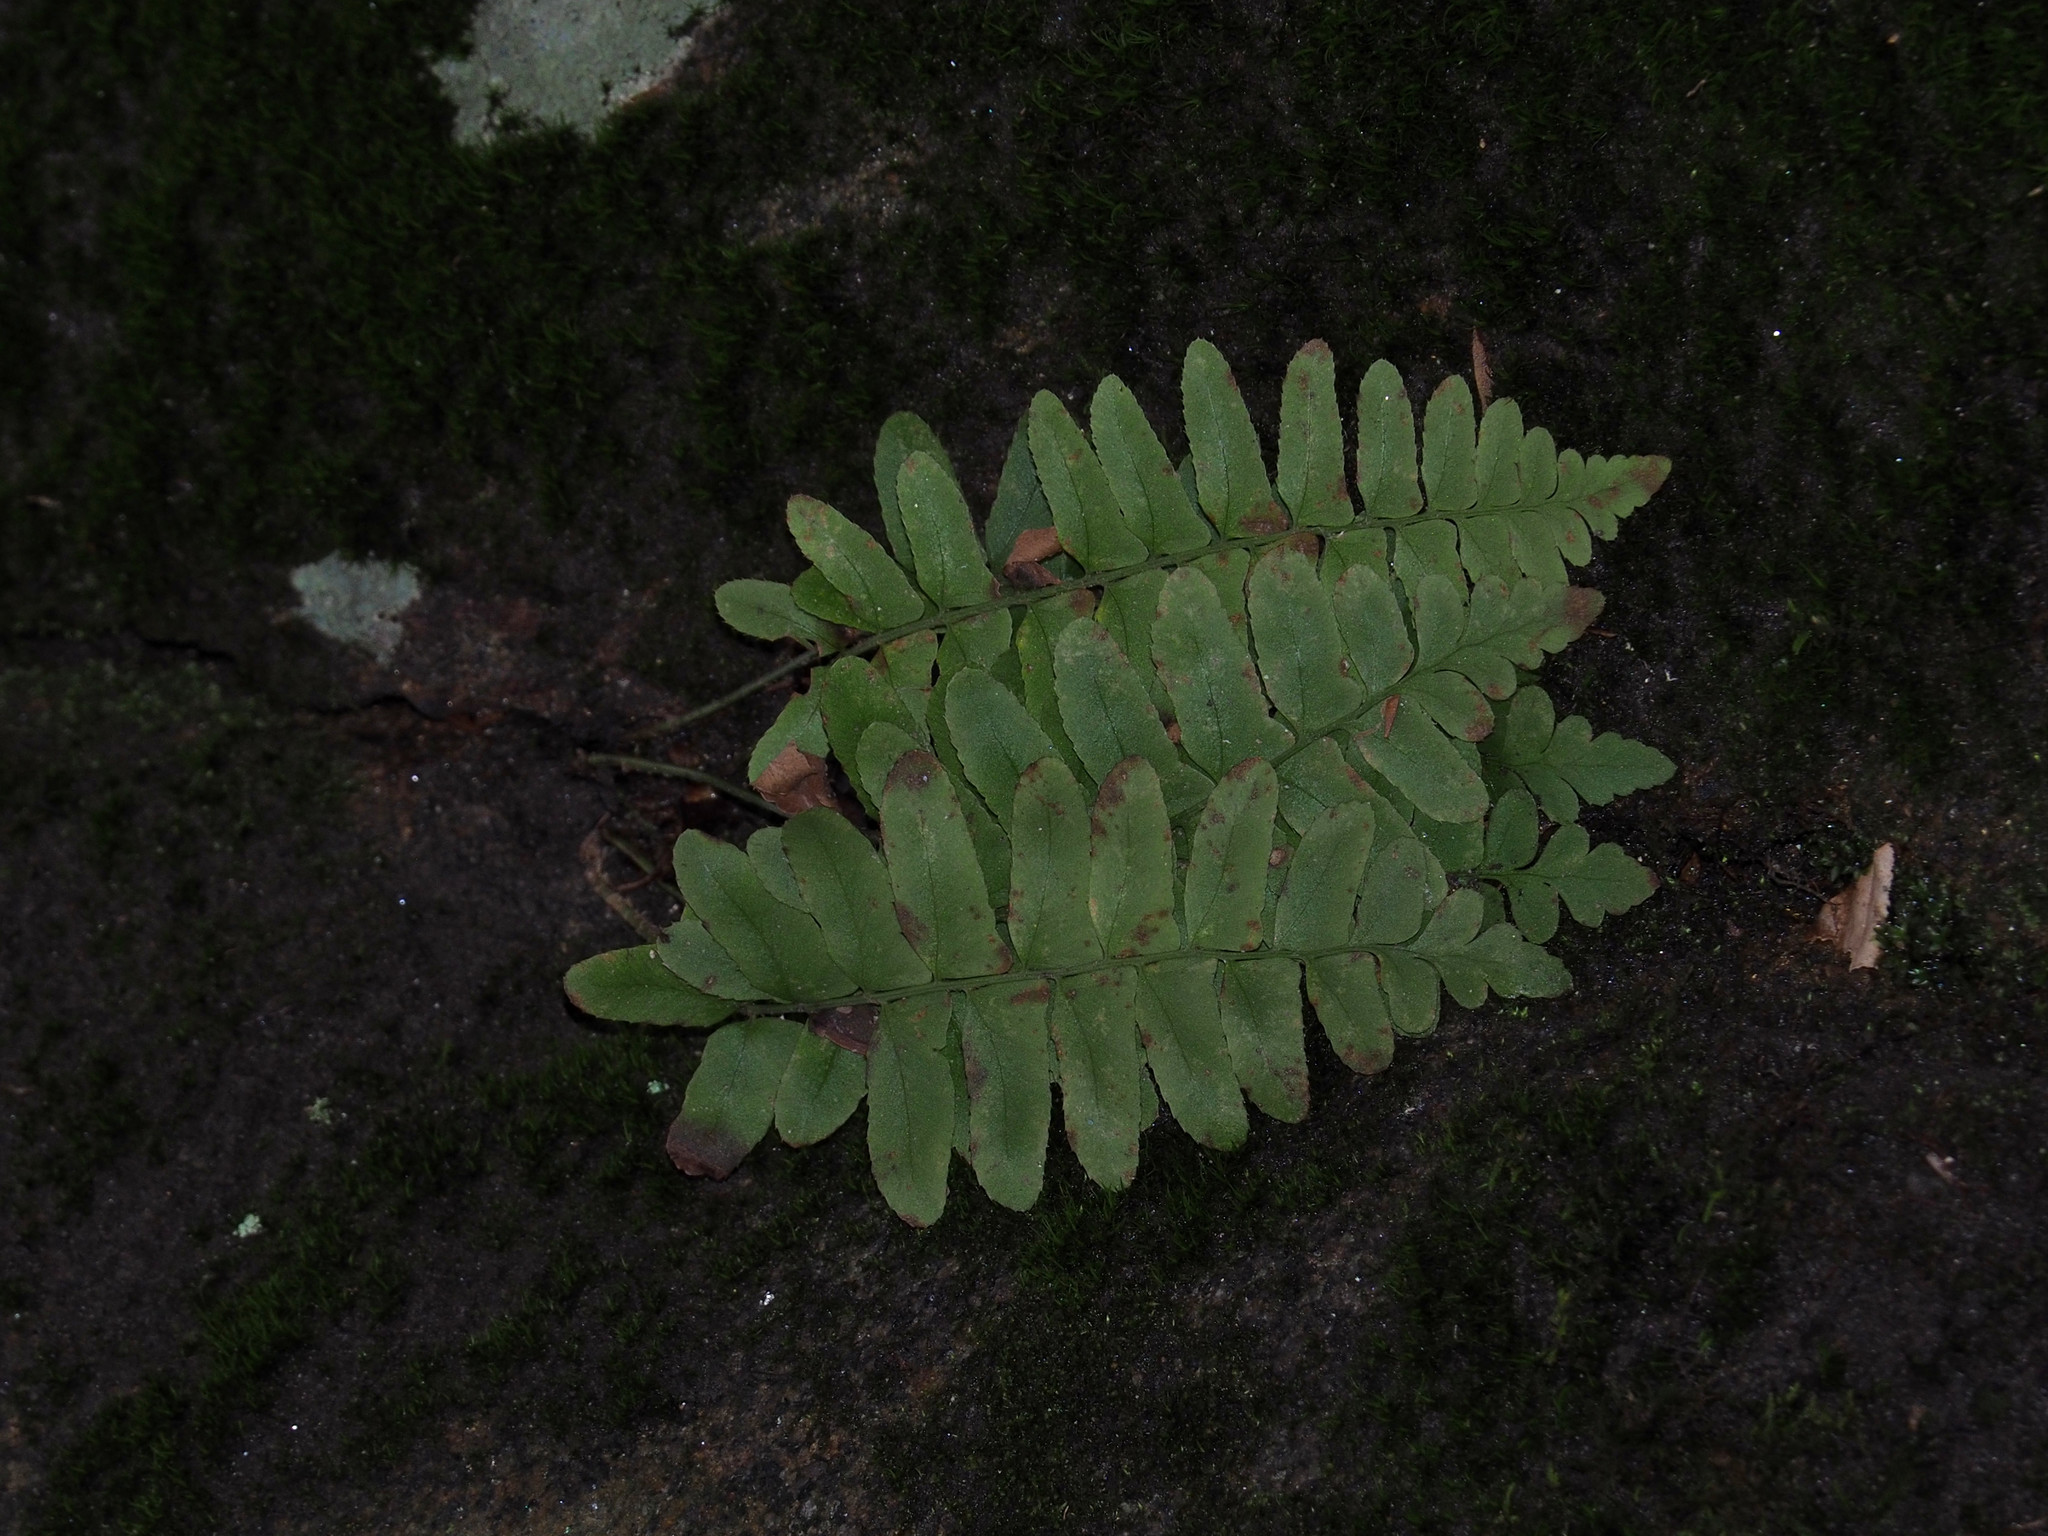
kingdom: Plantae
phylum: Tracheophyta
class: Polypodiopsida
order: Polypodiales
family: Dryopteridaceae
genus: Polystichum
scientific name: Polystichum acrostichoides
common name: Christmas fern
